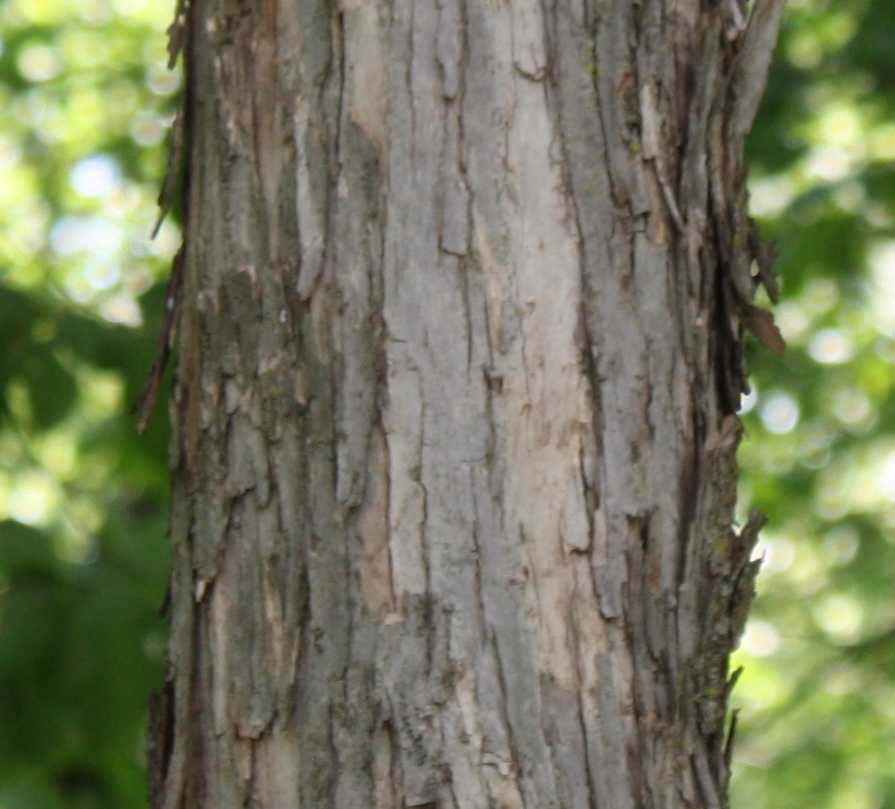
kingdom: Plantae
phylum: Tracheophyta
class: Magnoliopsida
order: Fagales
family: Betulaceae
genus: Ostrya
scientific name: Ostrya virginiana
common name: Ironwood
